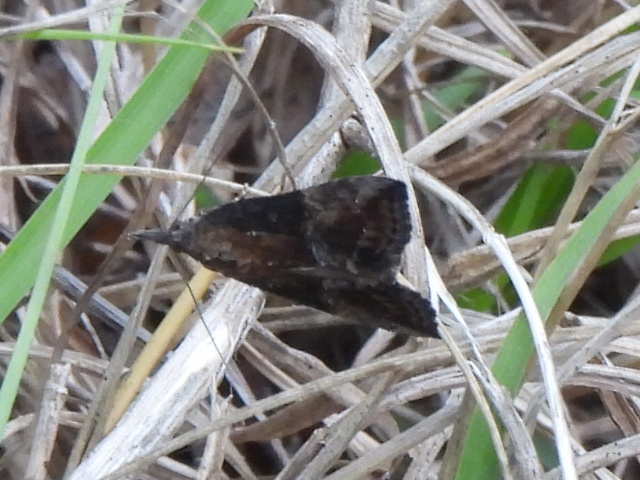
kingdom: Animalia
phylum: Arthropoda
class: Insecta
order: Lepidoptera
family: Erebidae
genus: Hypena
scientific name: Hypena scabra
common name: Green cloverworm
